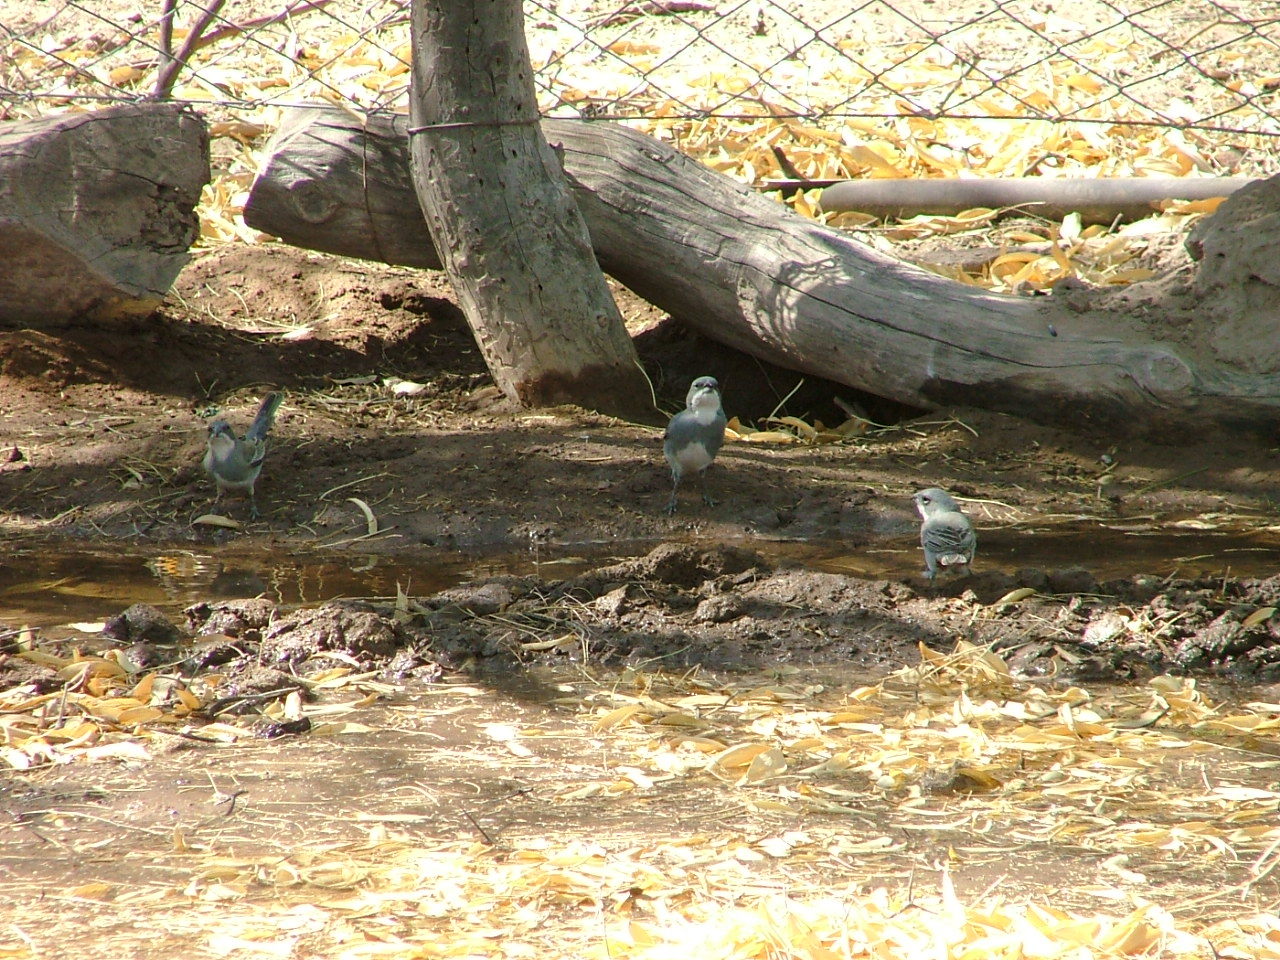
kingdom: Animalia
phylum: Chordata
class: Aves
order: Passeriformes
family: Thraupidae
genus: Diuca
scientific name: Diuca diuca
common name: Common diuca finch
